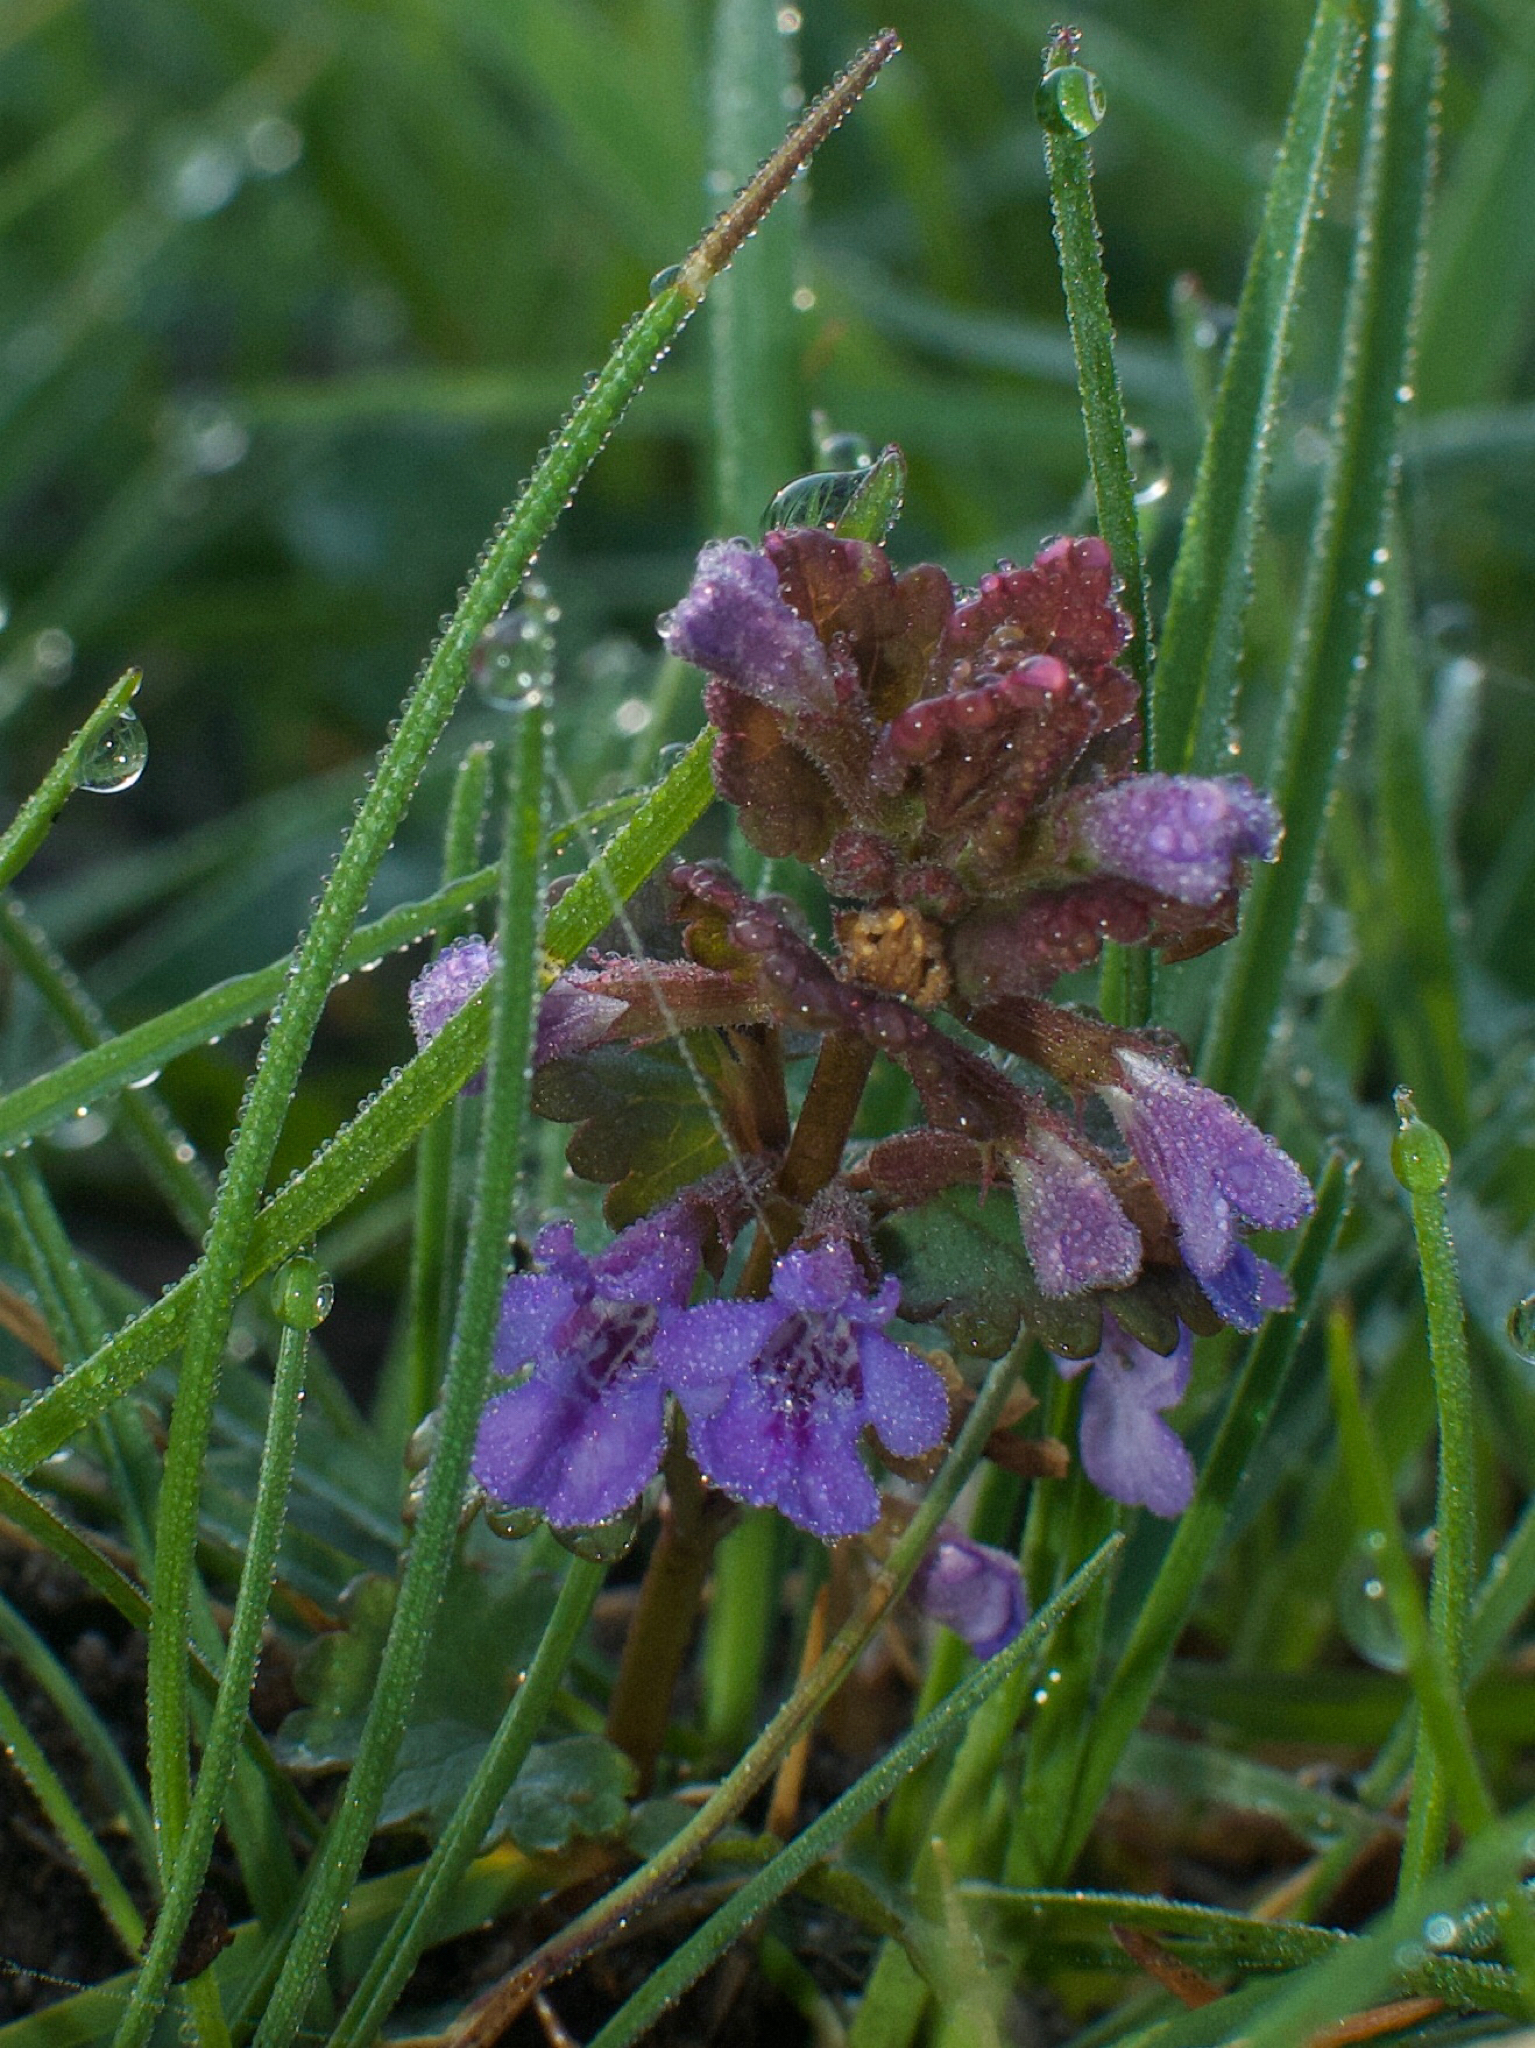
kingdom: Plantae
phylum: Tracheophyta
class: Magnoliopsida
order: Lamiales
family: Lamiaceae
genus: Glechoma
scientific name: Glechoma hederacea
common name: Ground ivy
